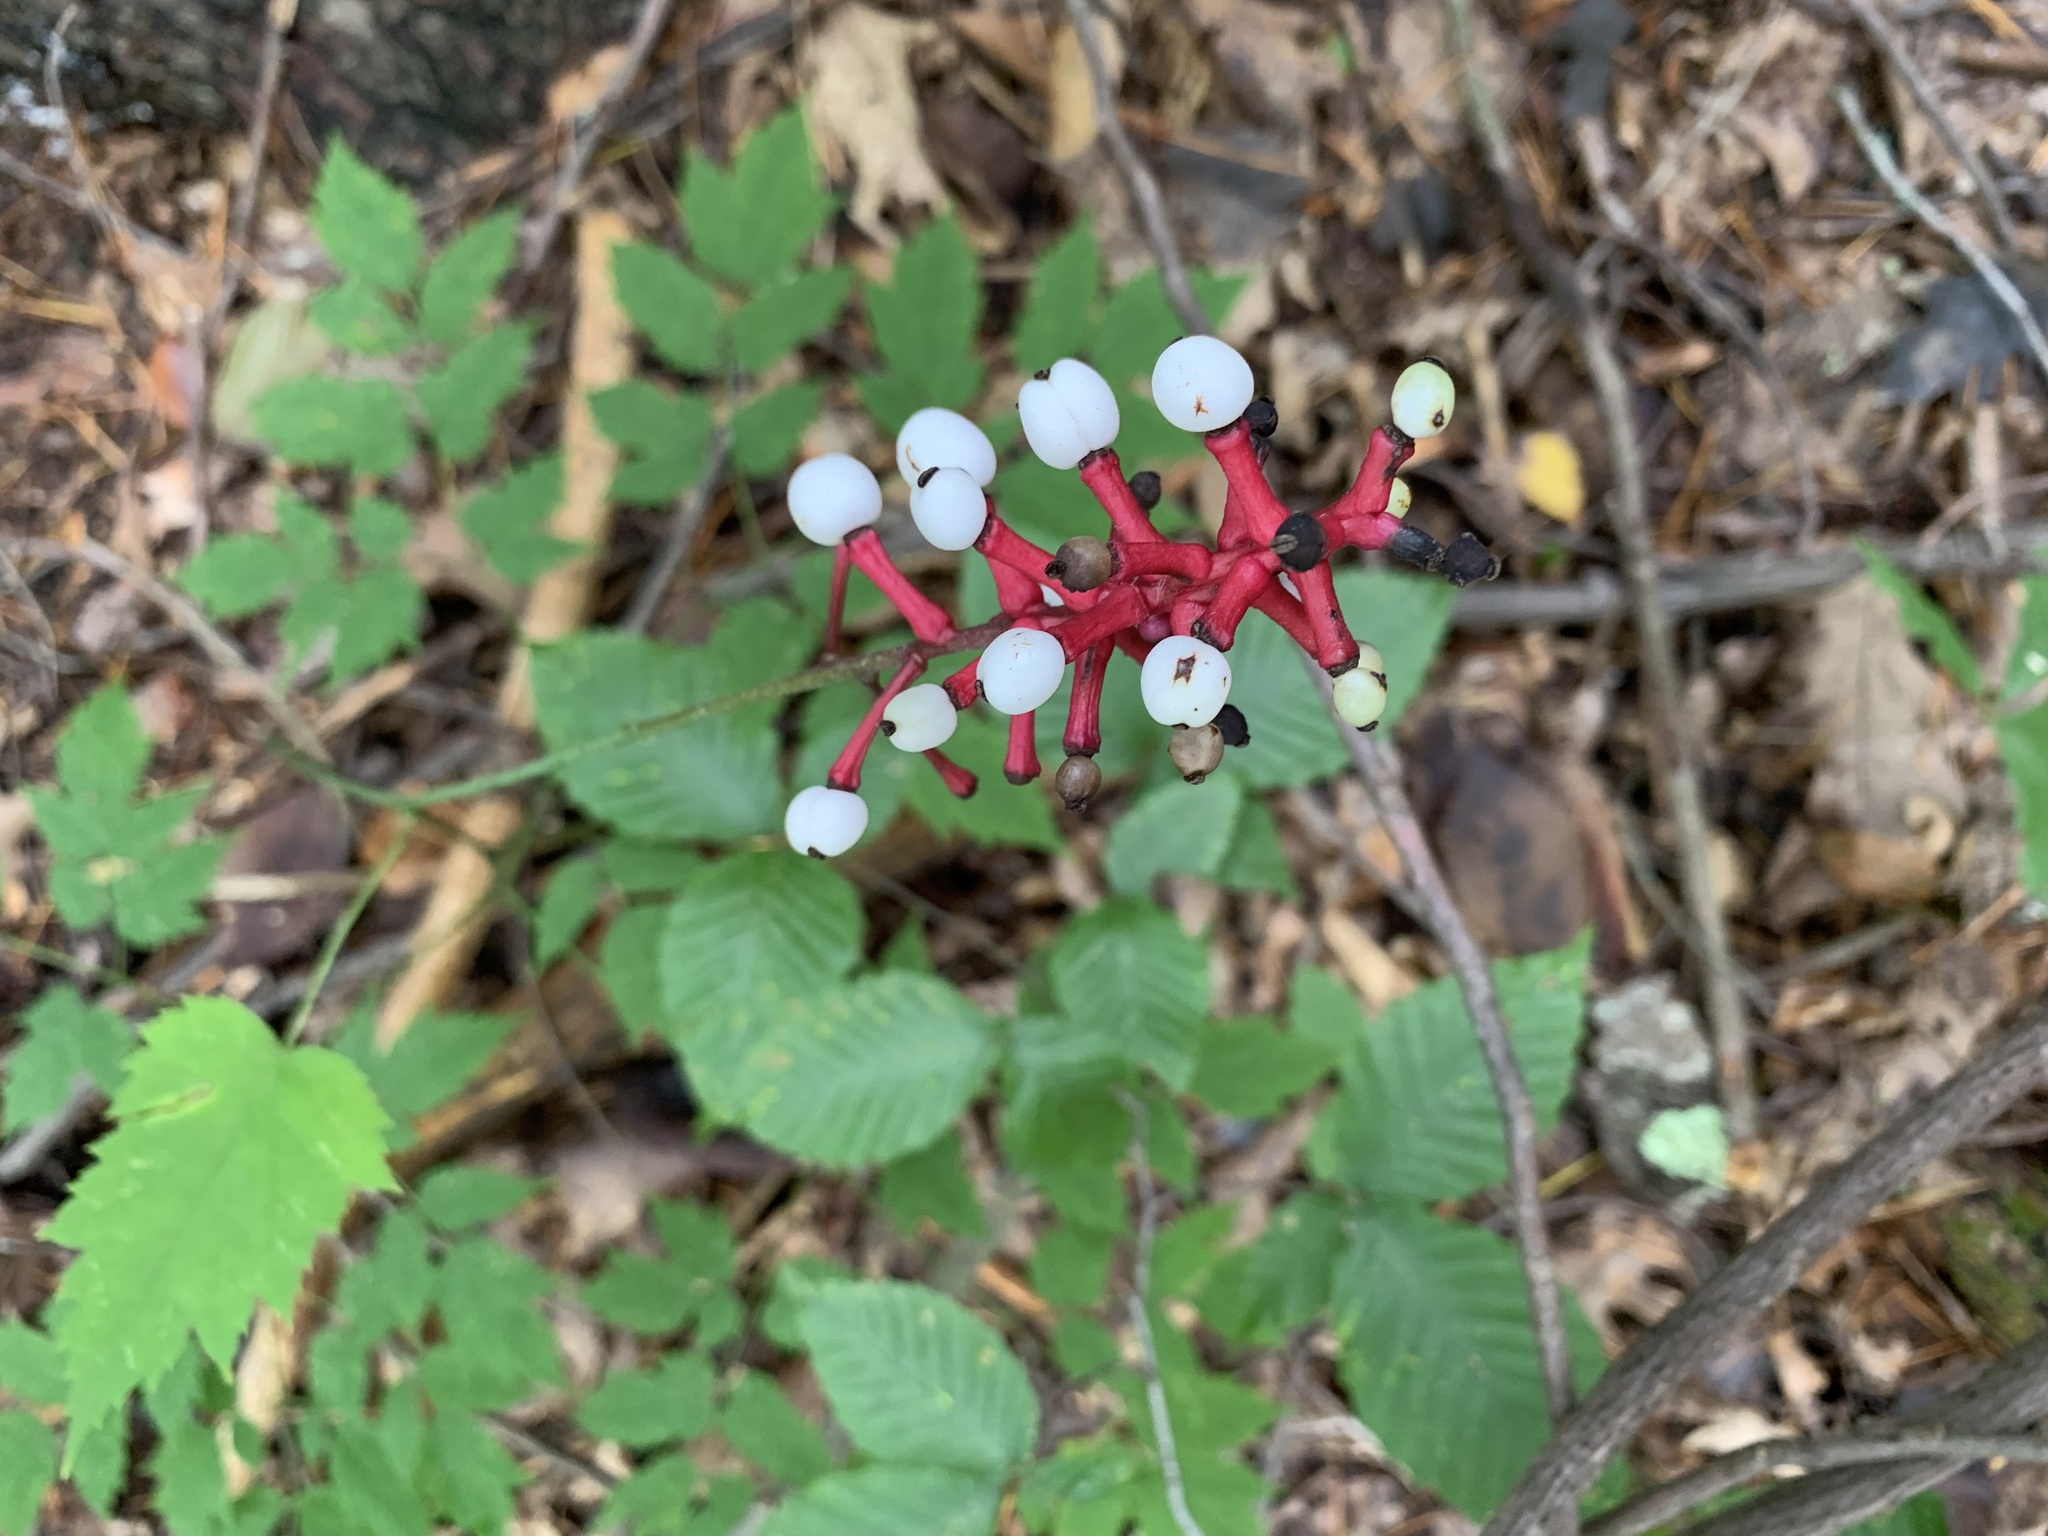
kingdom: Plantae
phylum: Tracheophyta
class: Magnoliopsida
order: Ranunculales
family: Ranunculaceae
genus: Actaea
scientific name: Actaea pachypoda
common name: Doll's-eyes
